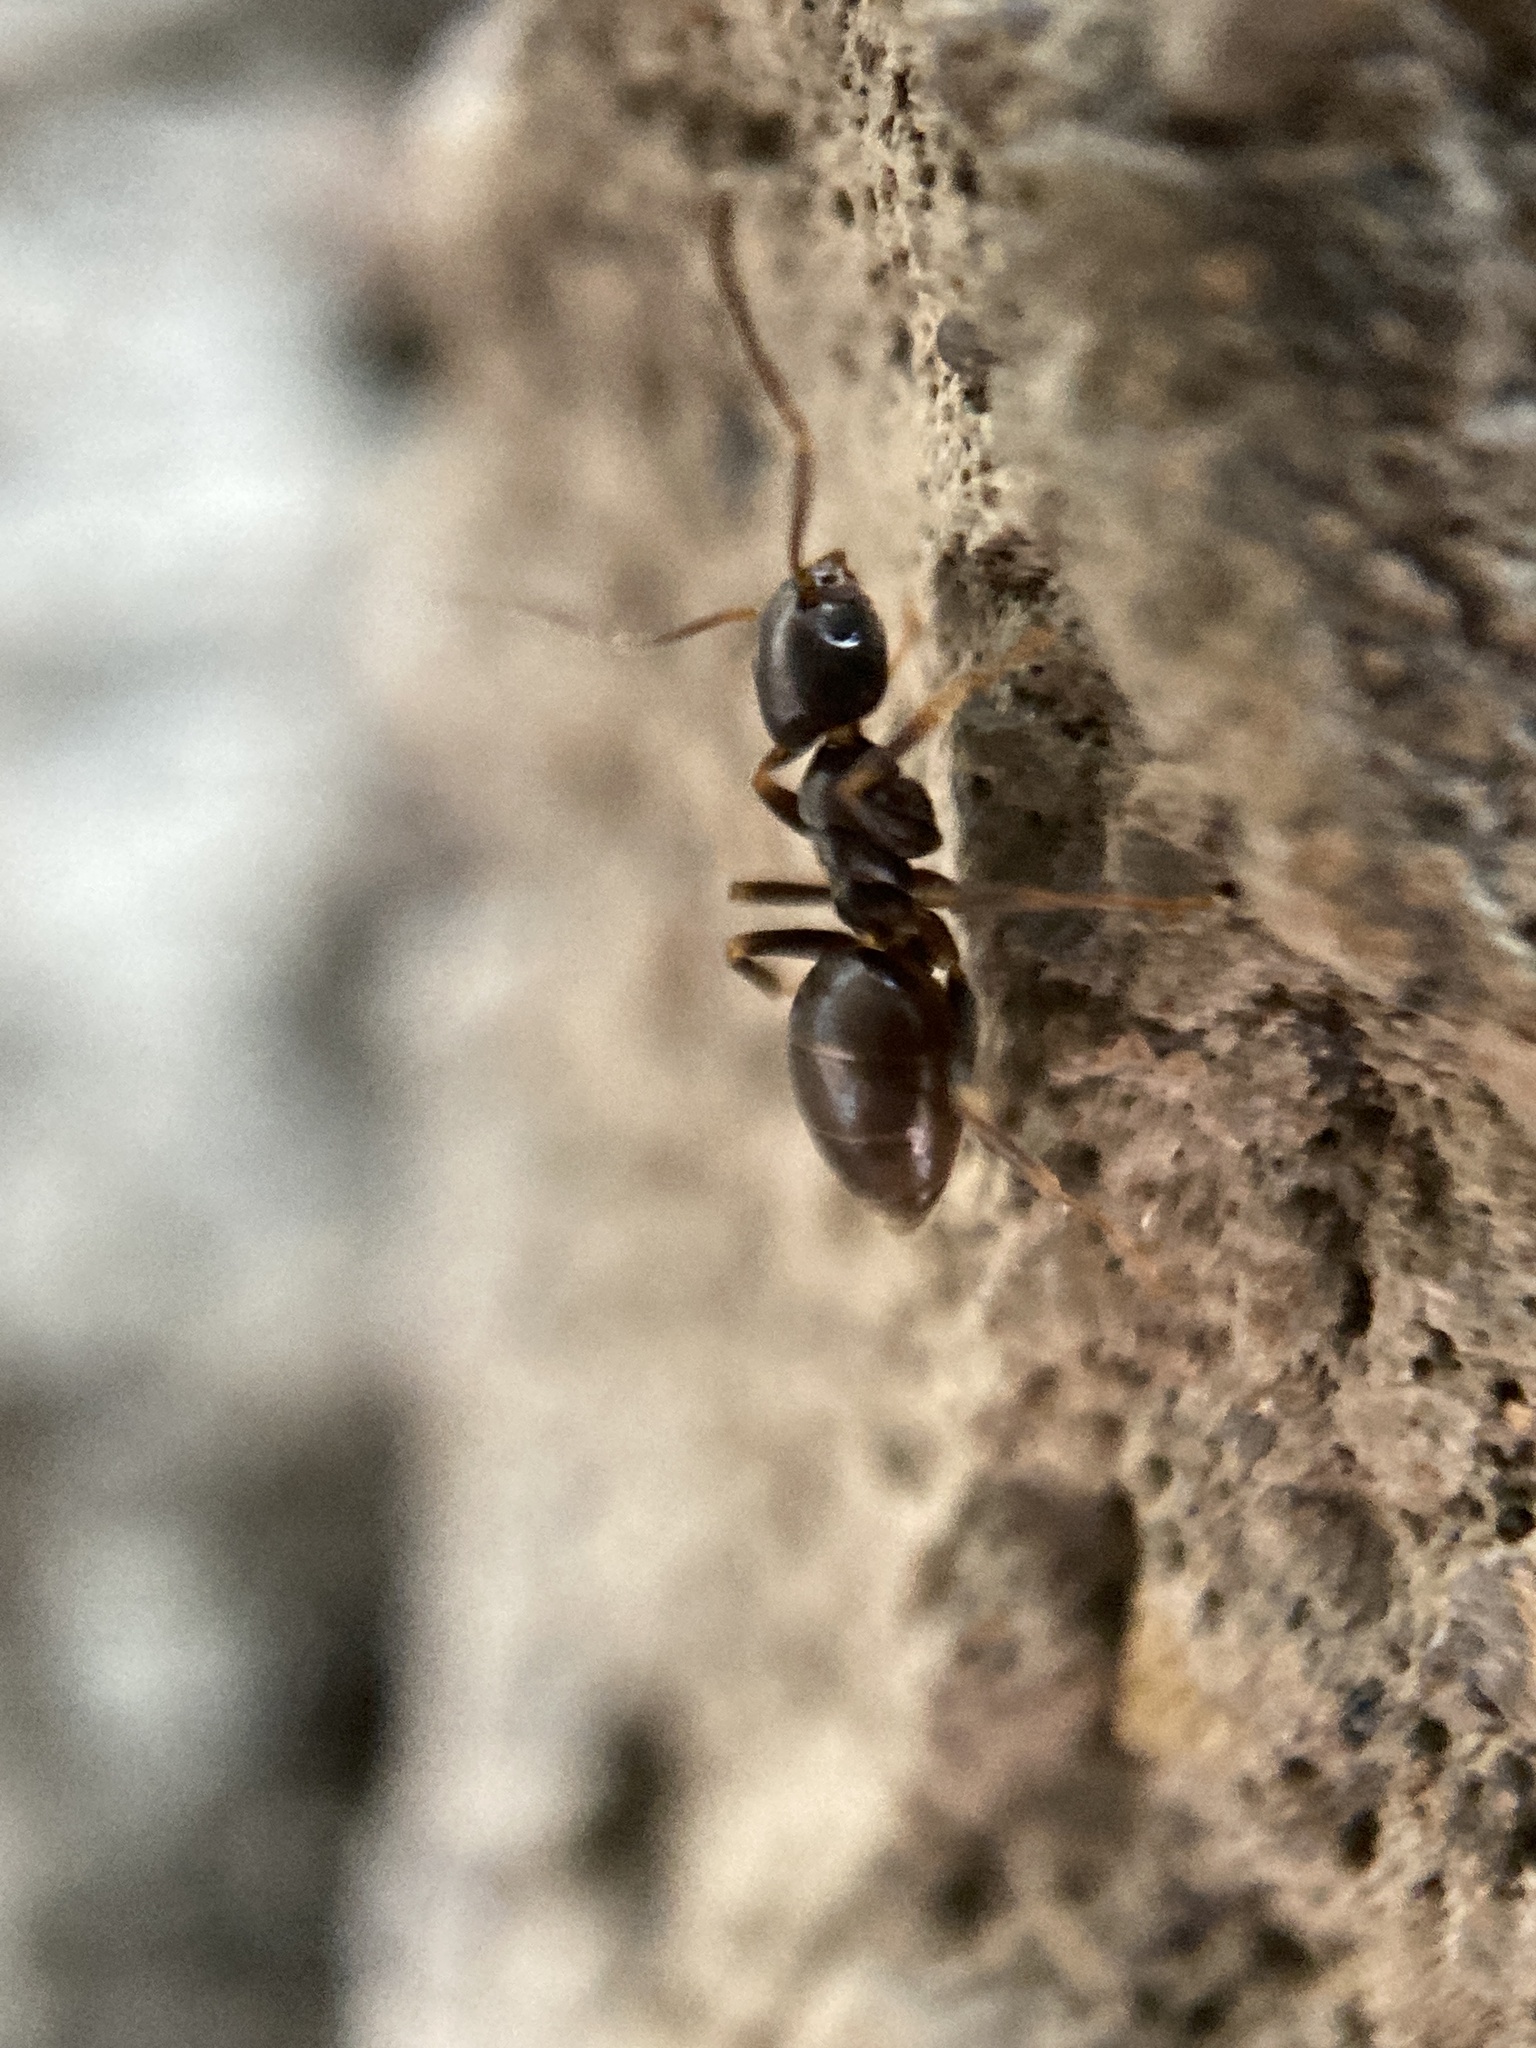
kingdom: Animalia
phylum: Arthropoda
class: Insecta
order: Hymenoptera
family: Formicidae
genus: Tapinoma
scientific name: Tapinoma sessile
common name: Odorous house ant
